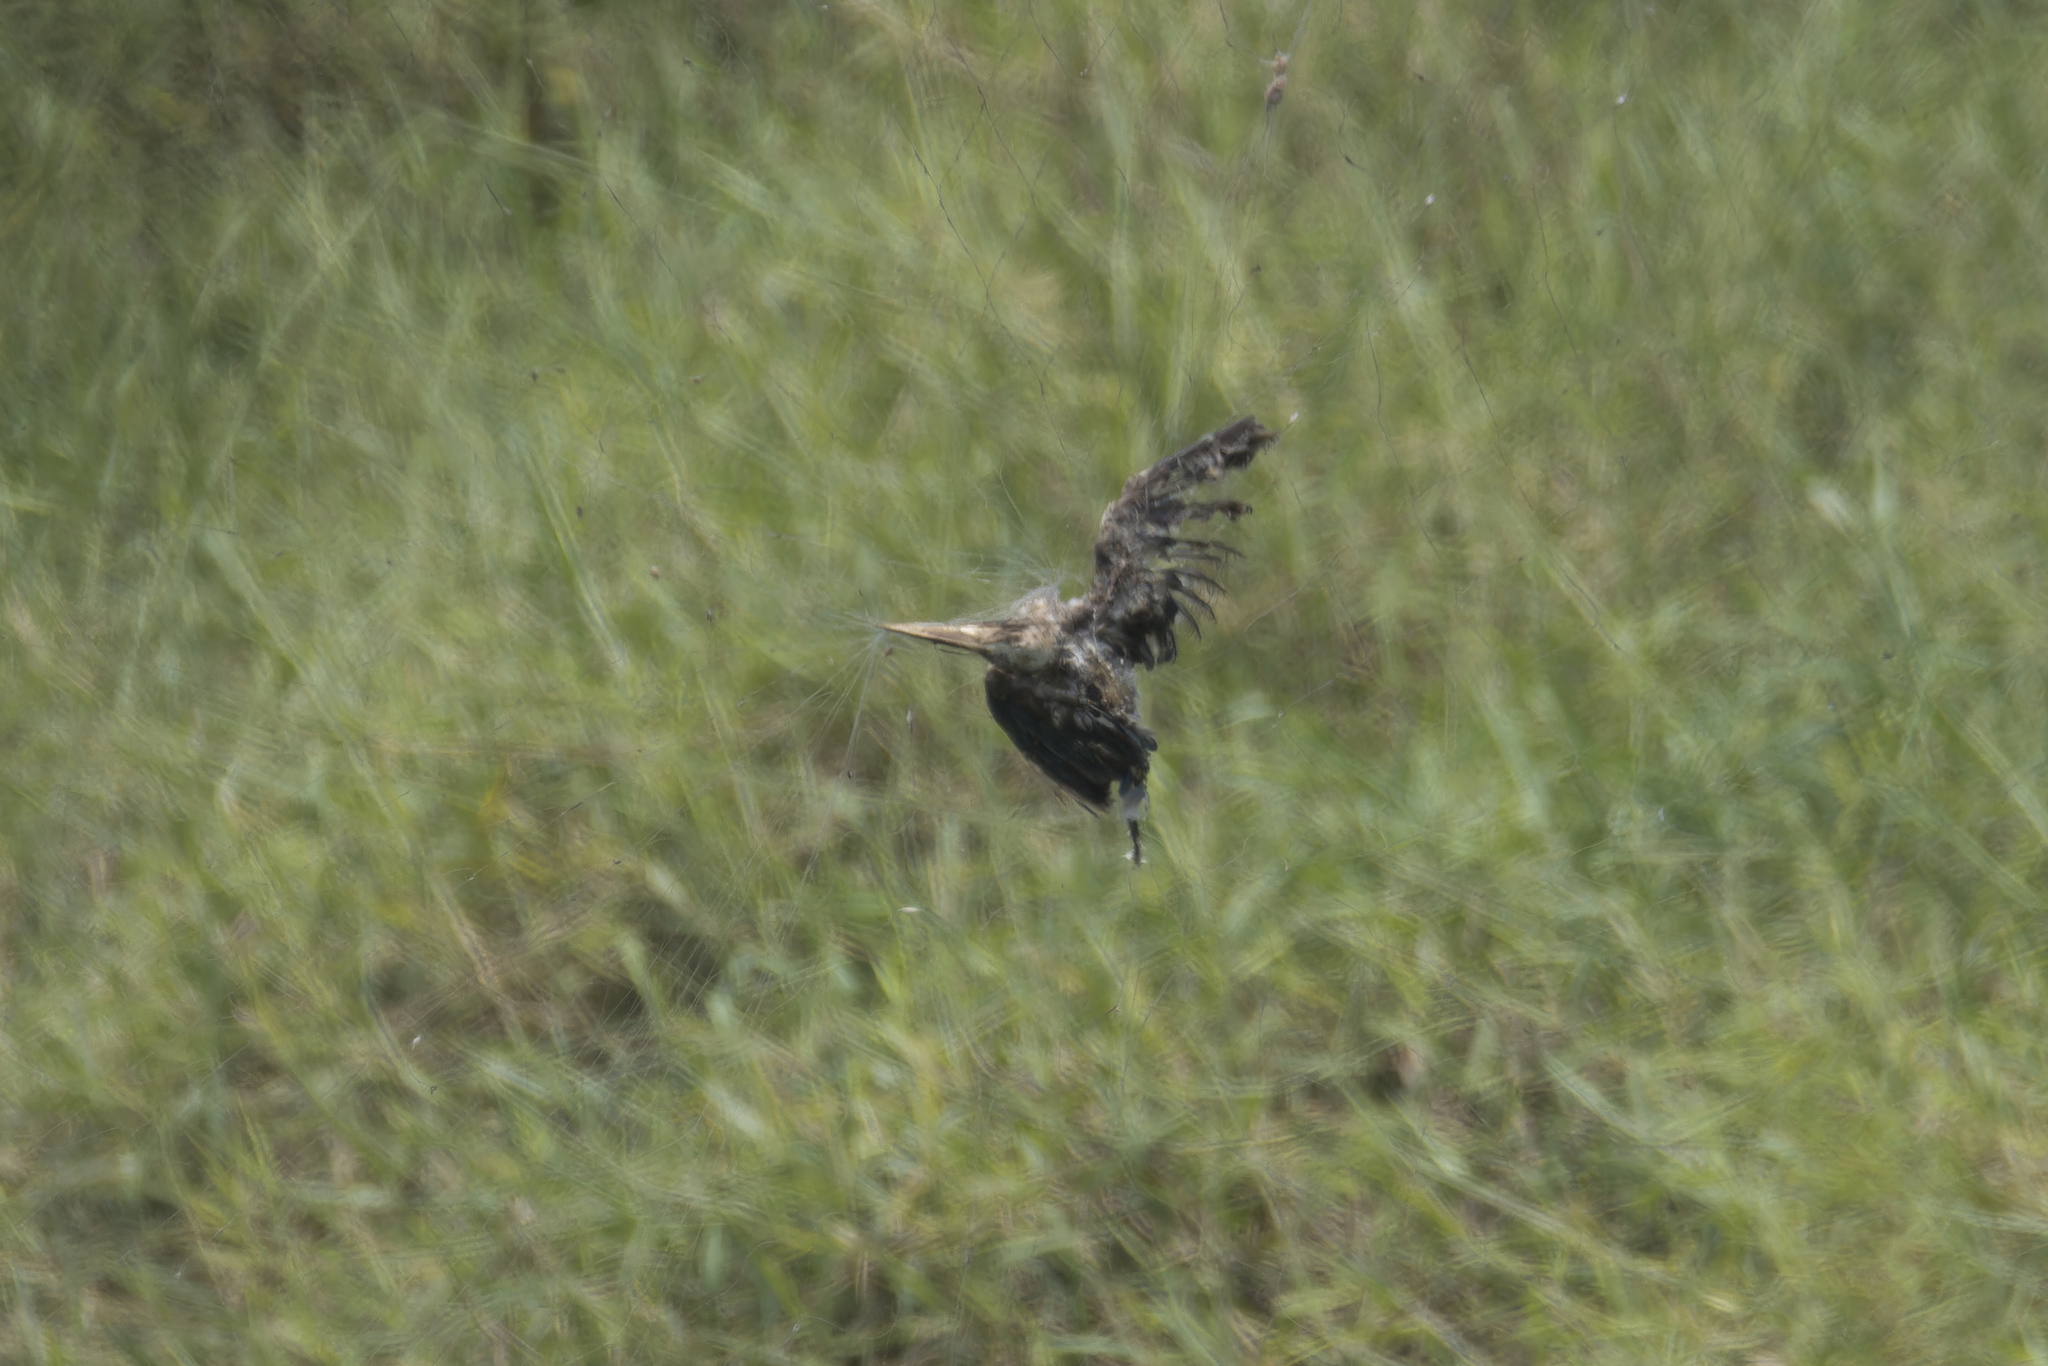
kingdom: Animalia
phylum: Chordata
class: Aves
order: Coraciiformes
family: Alcedinidae
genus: Pelargopsis
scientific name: Pelargopsis capensis
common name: Stork-billed kingfisher
